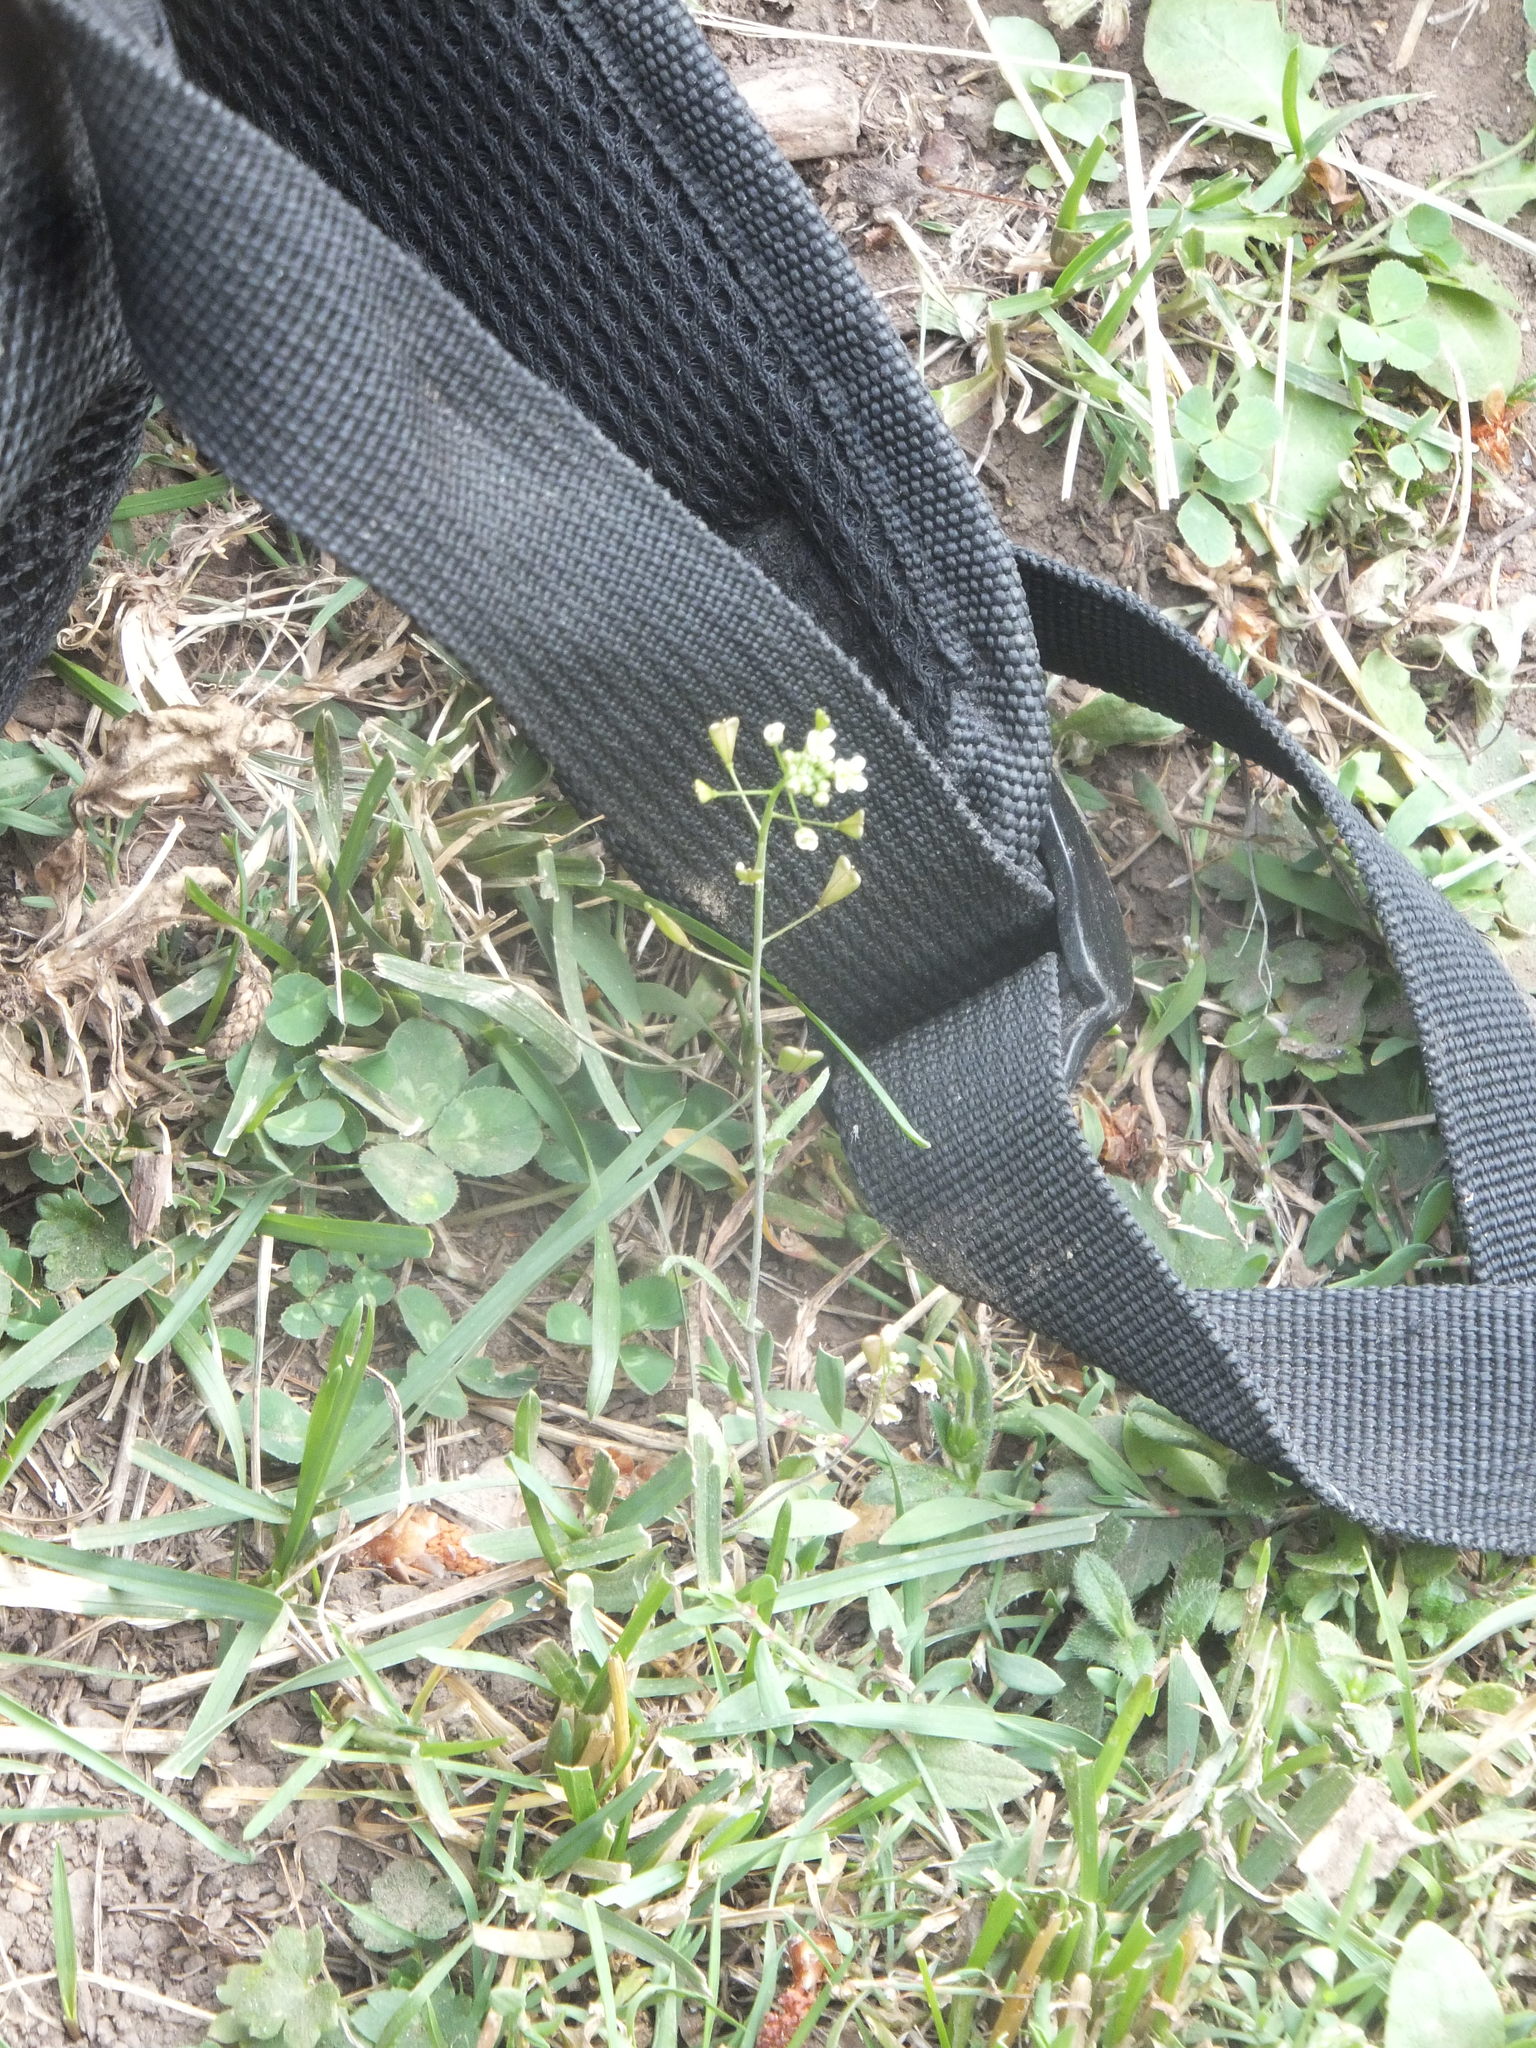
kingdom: Plantae
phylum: Tracheophyta
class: Magnoliopsida
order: Brassicales
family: Brassicaceae
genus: Capsella
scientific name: Capsella bursa-pastoris
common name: Shepherd's purse
